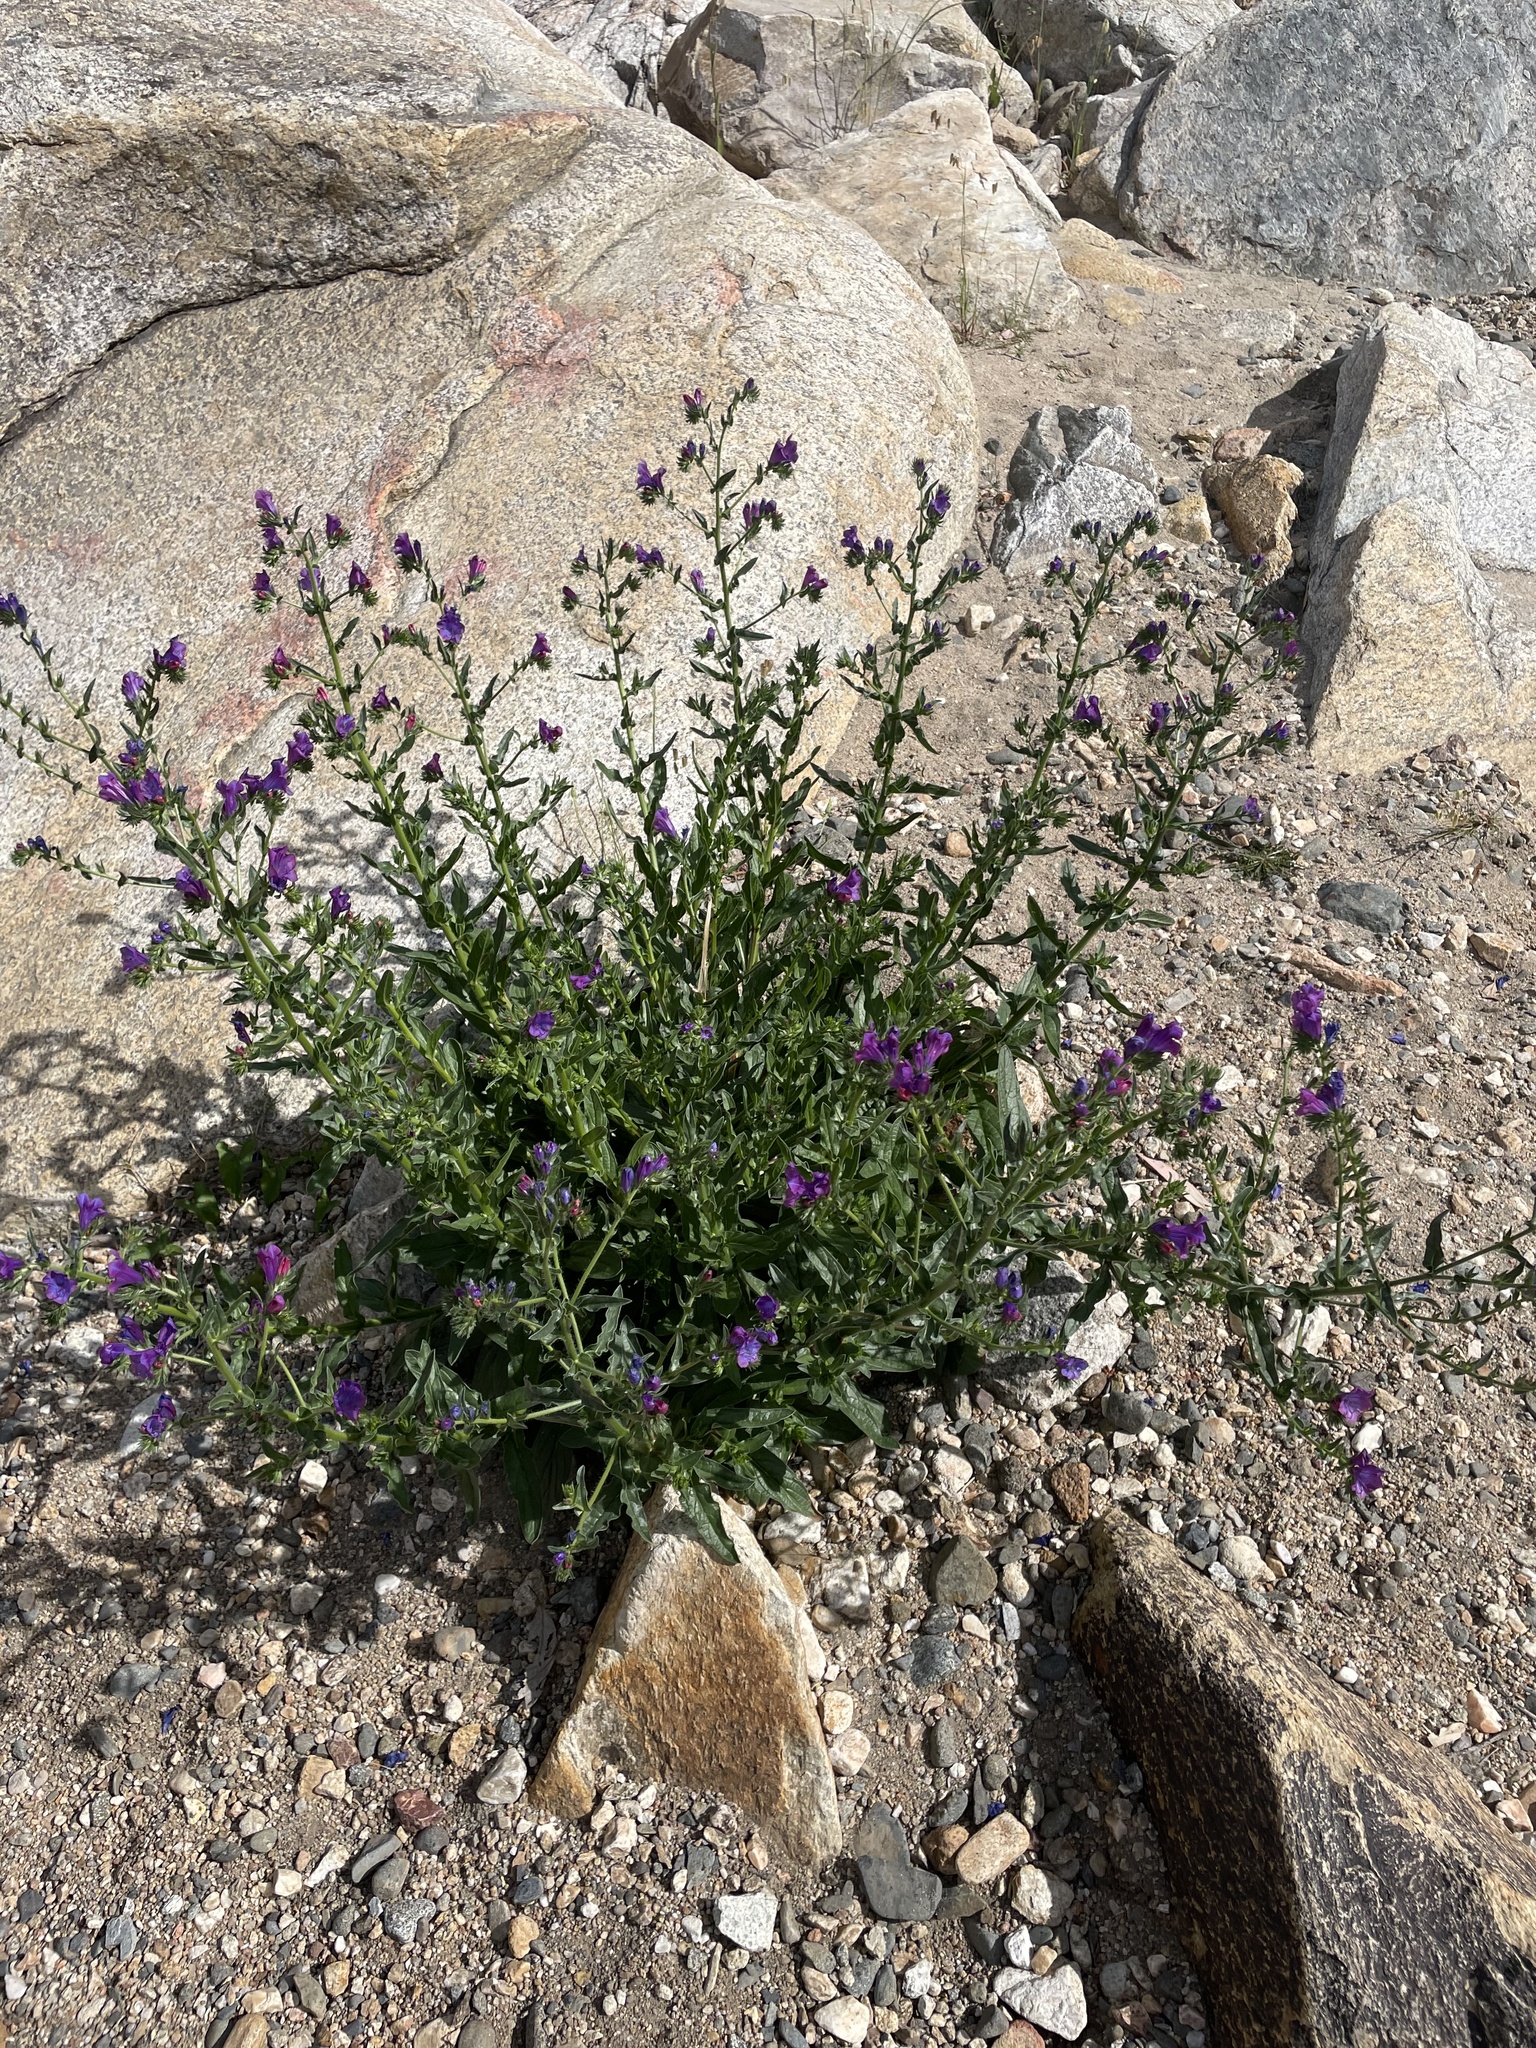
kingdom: Plantae
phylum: Tracheophyta
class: Magnoliopsida
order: Boraginales
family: Boraginaceae
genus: Echium
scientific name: Echium plantagineum
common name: Purple viper's-bugloss
